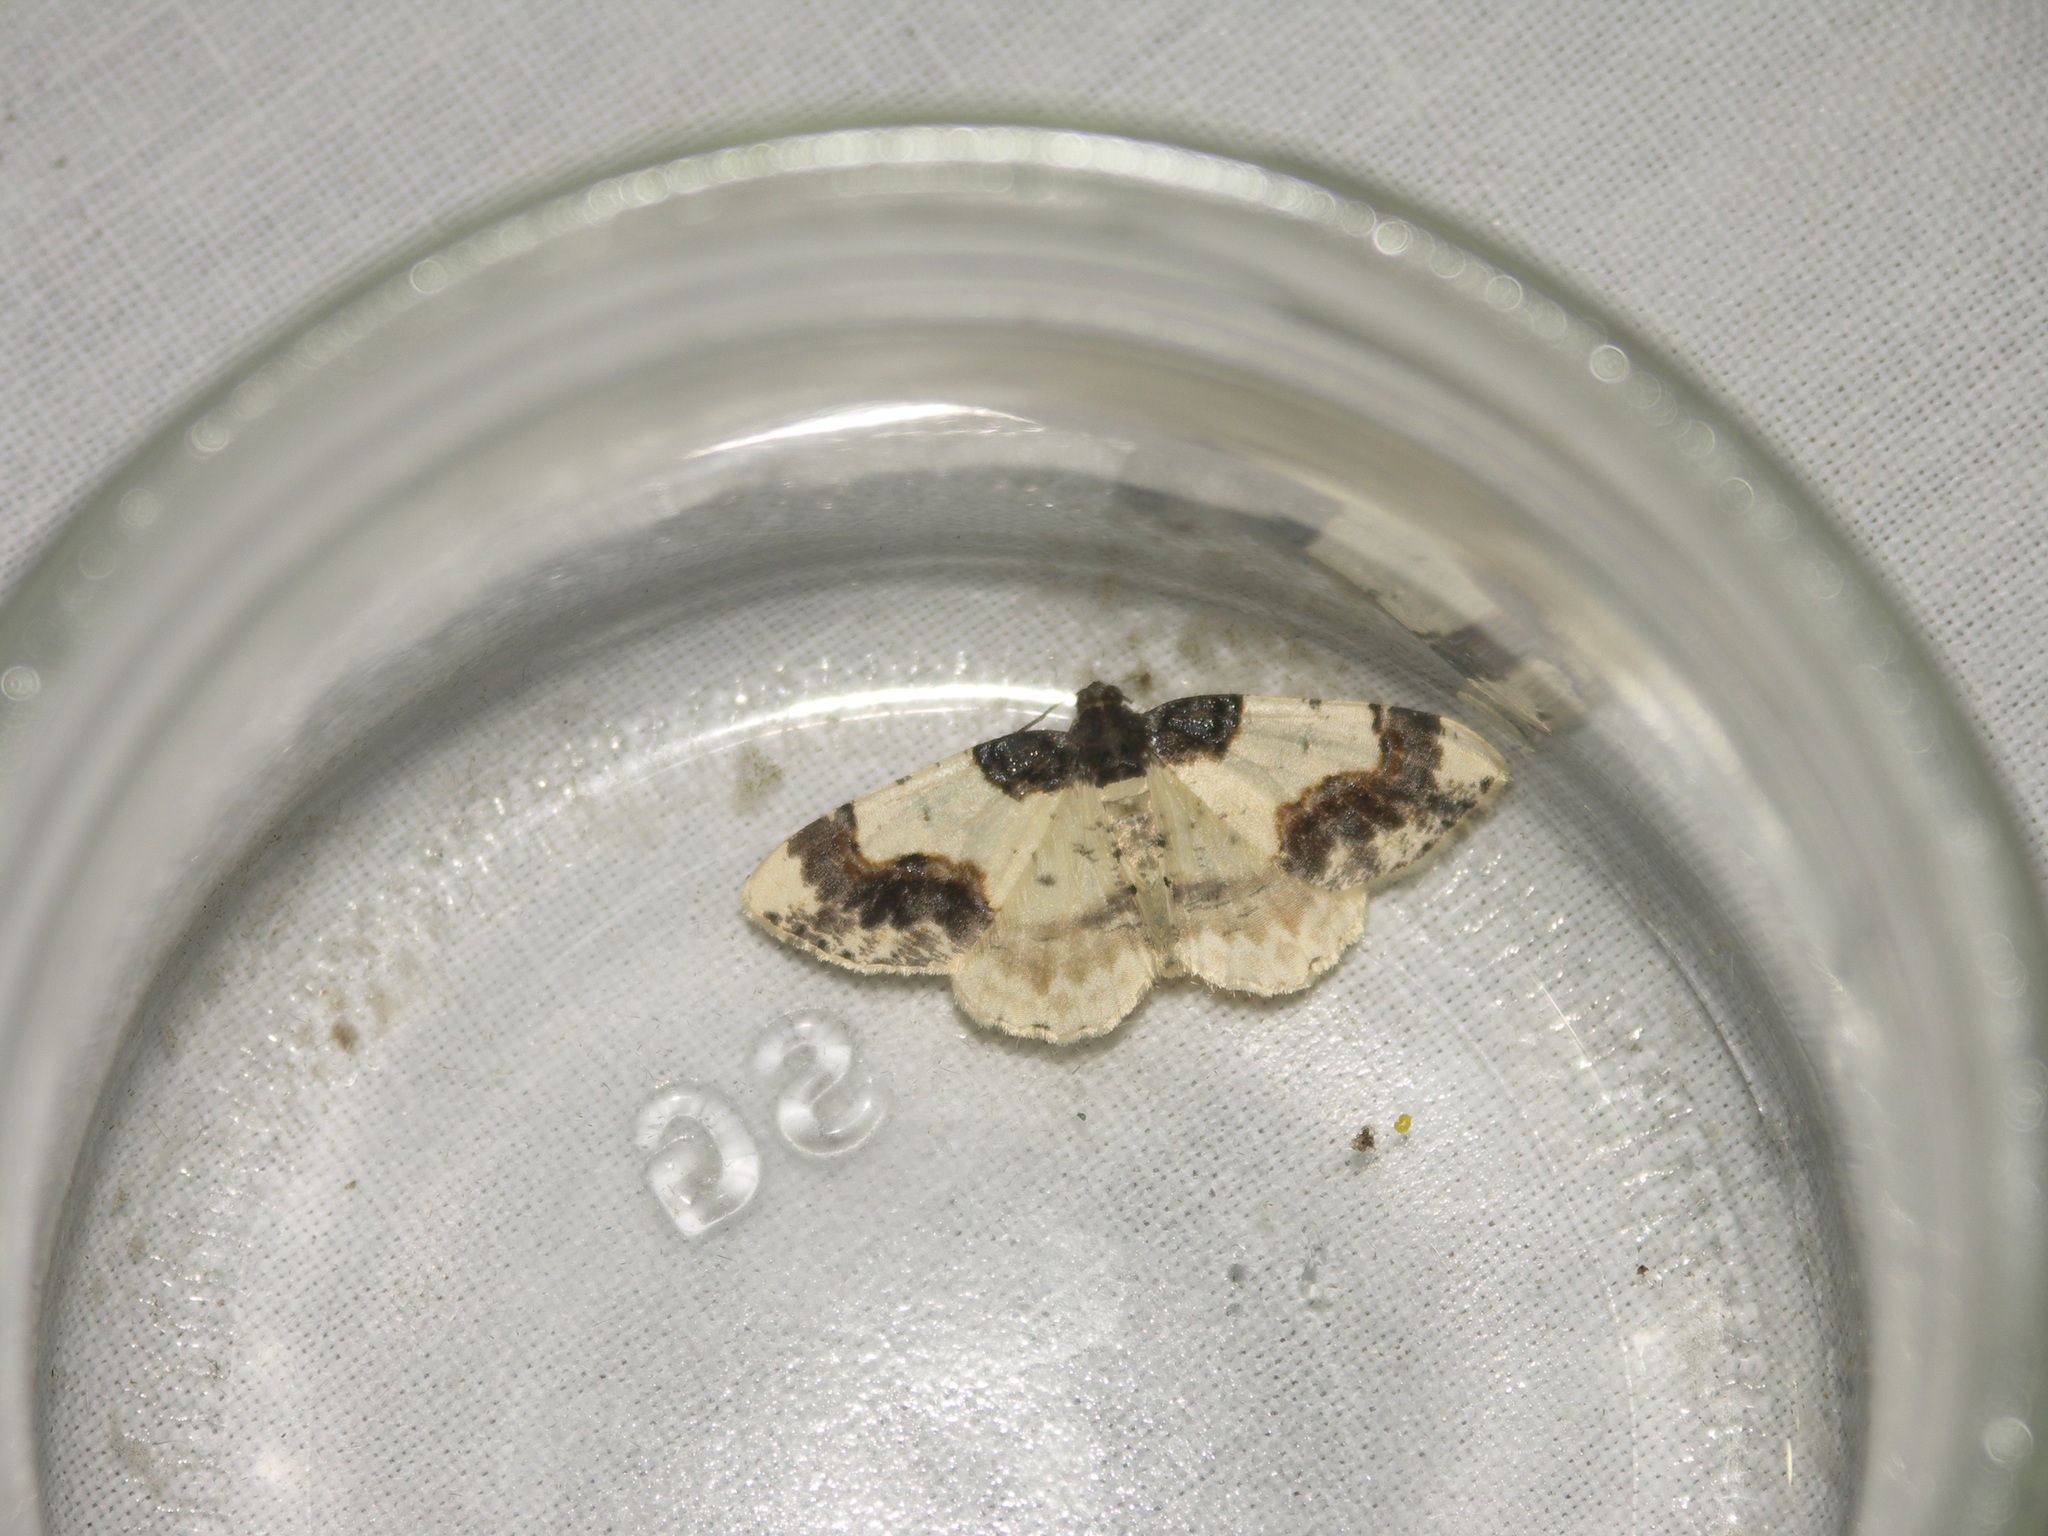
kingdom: Animalia
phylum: Arthropoda
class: Insecta
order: Lepidoptera
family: Geometridae
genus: Ligdia
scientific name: Ligdia adustata
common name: Scorched carpet
